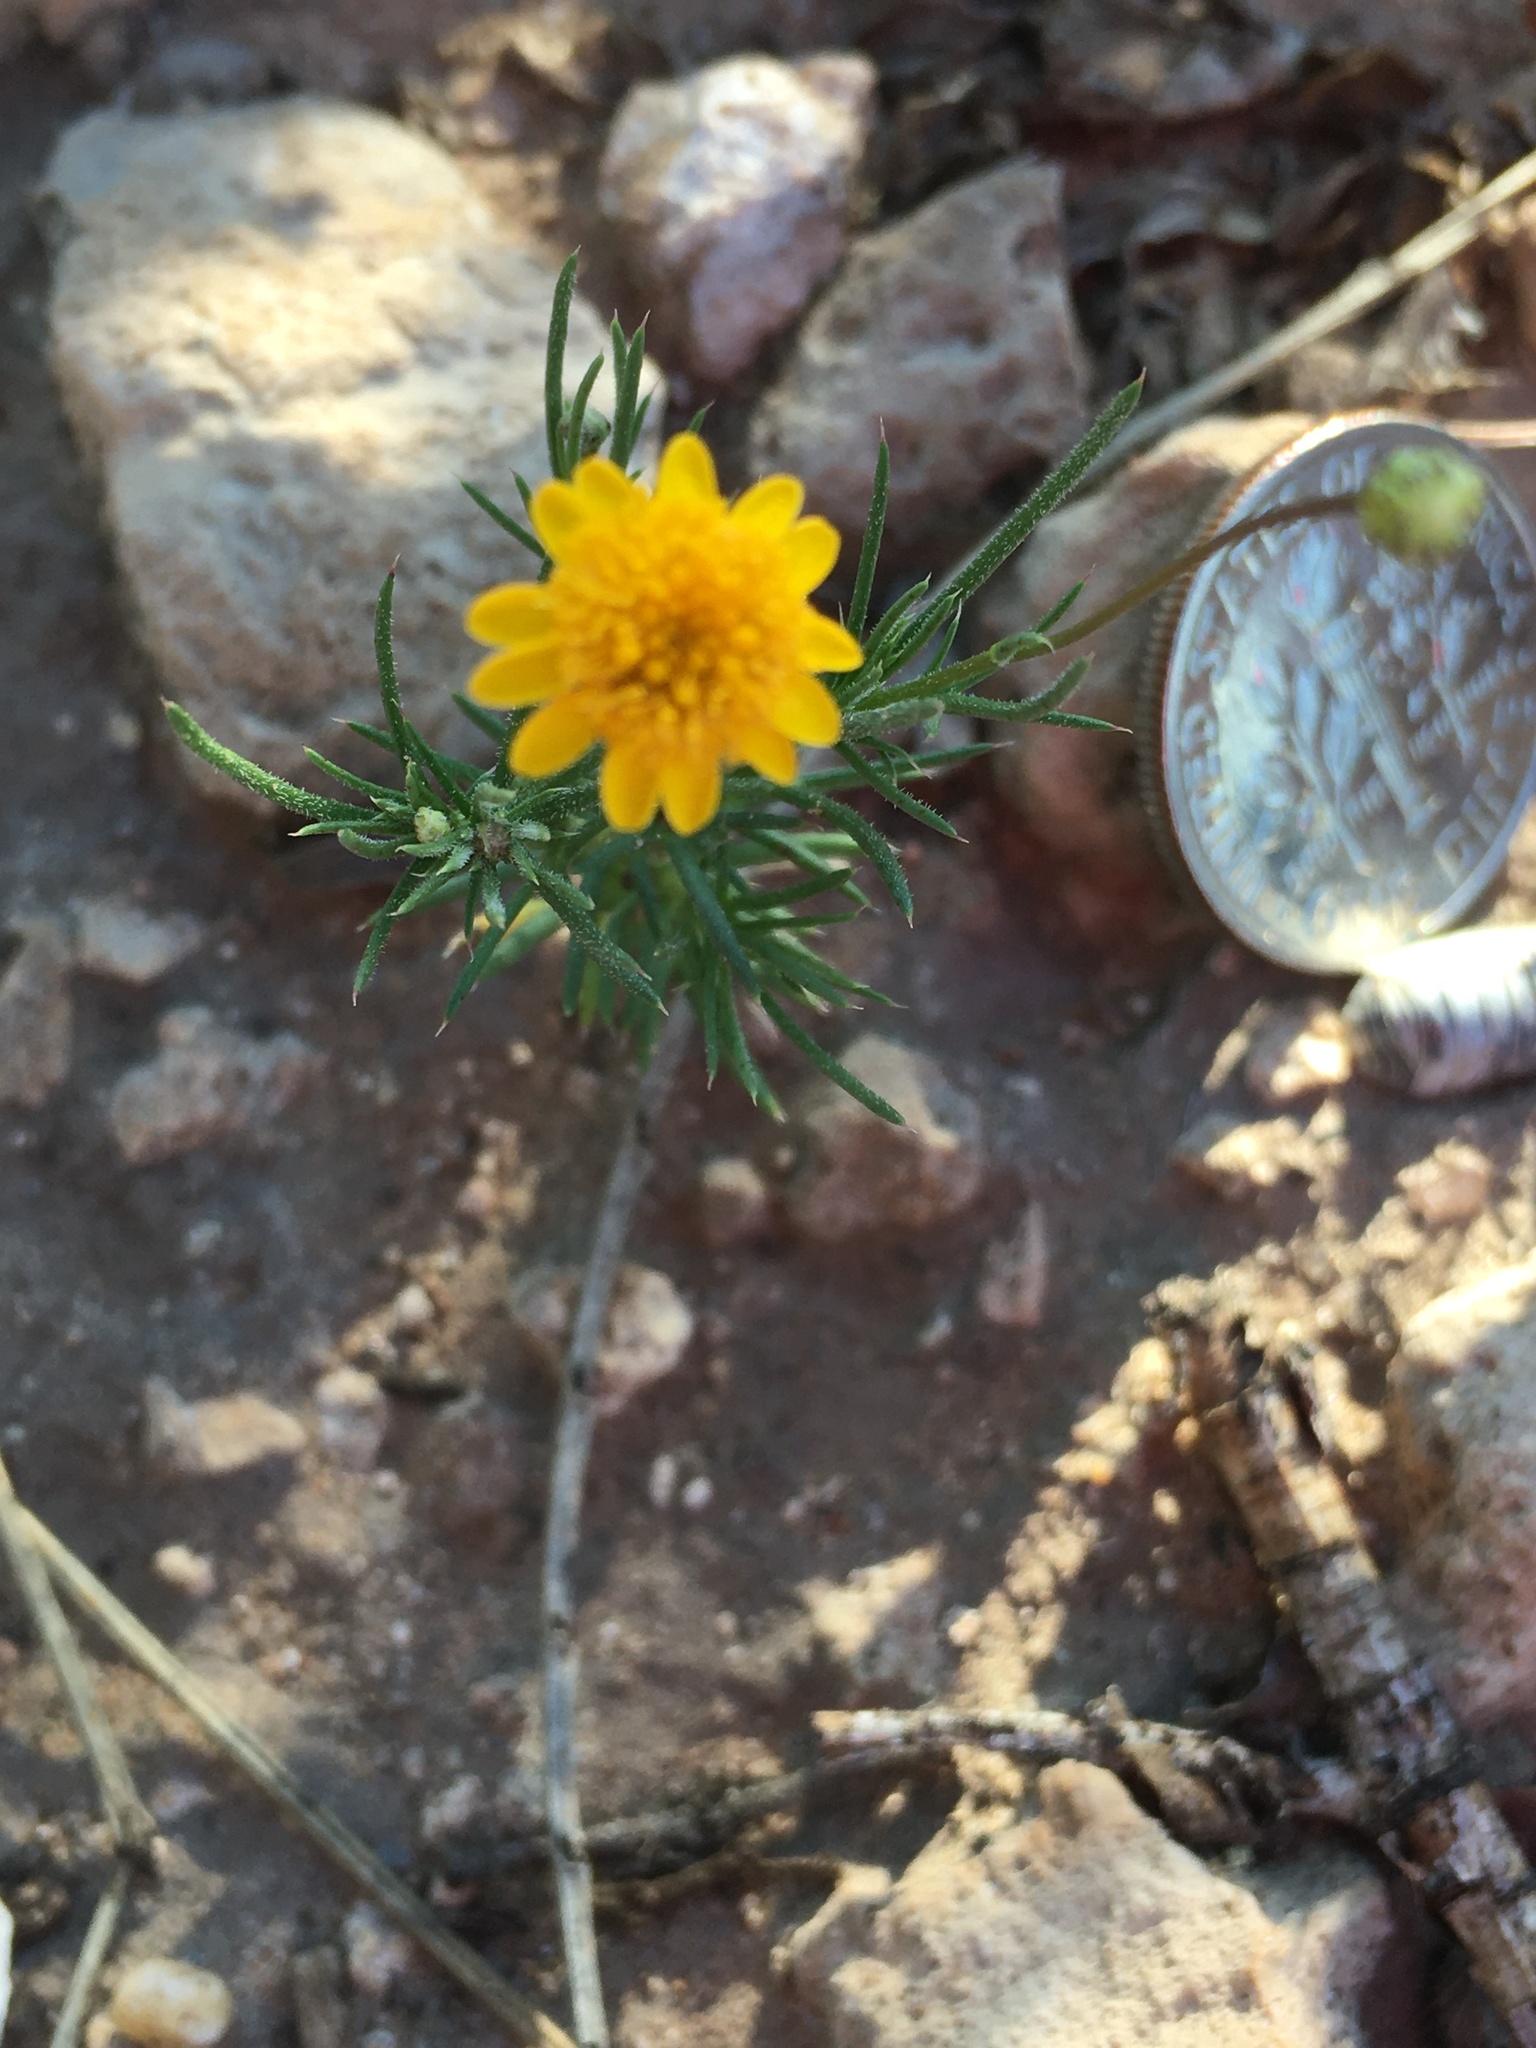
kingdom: Plantae
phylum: Tracheophyta
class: Magnoliopsida
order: Asterales
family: Asteraceae
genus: Thymophylla
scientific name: Thymophylla pentachaeta
